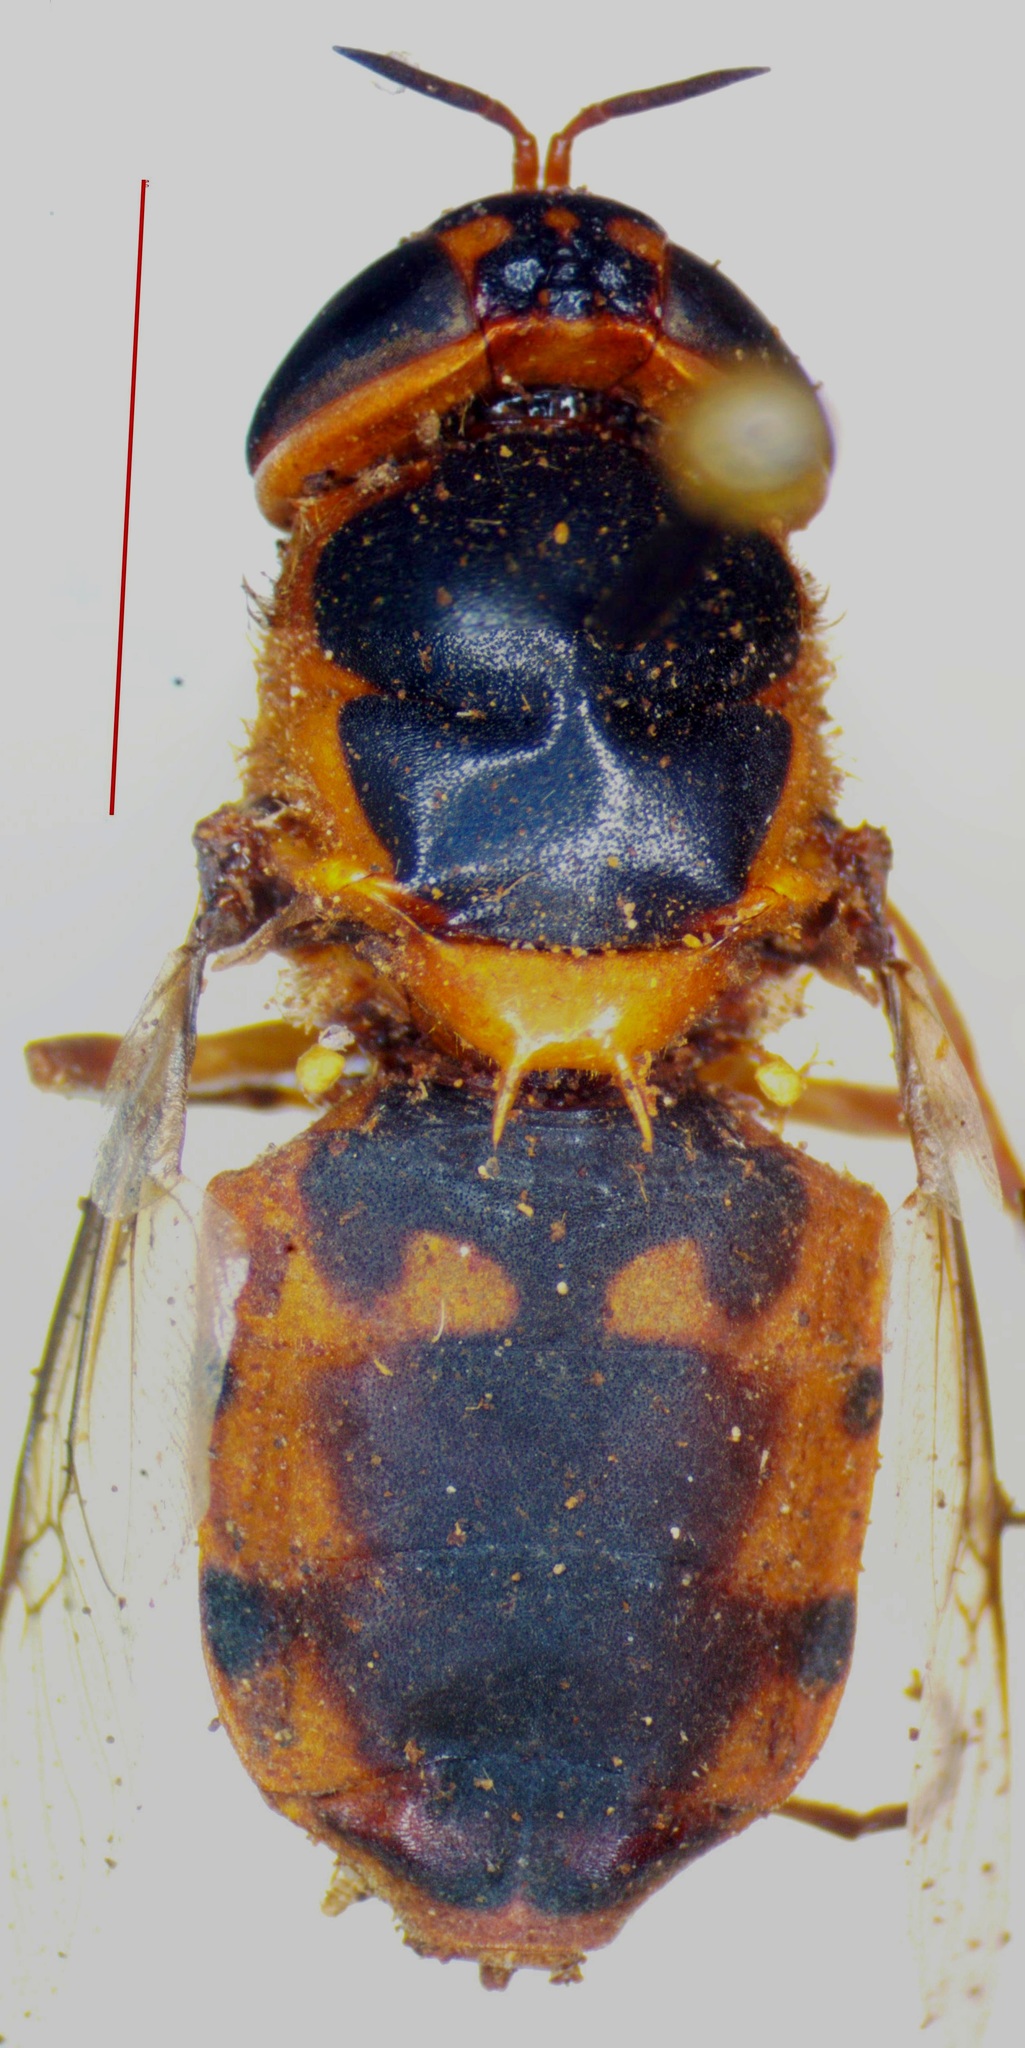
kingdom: Animalia
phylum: Arthropoda
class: Insecta
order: Diptera
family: Stratiomyidae
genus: Hedriodiscus
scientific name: Hedriodiscus truquii
